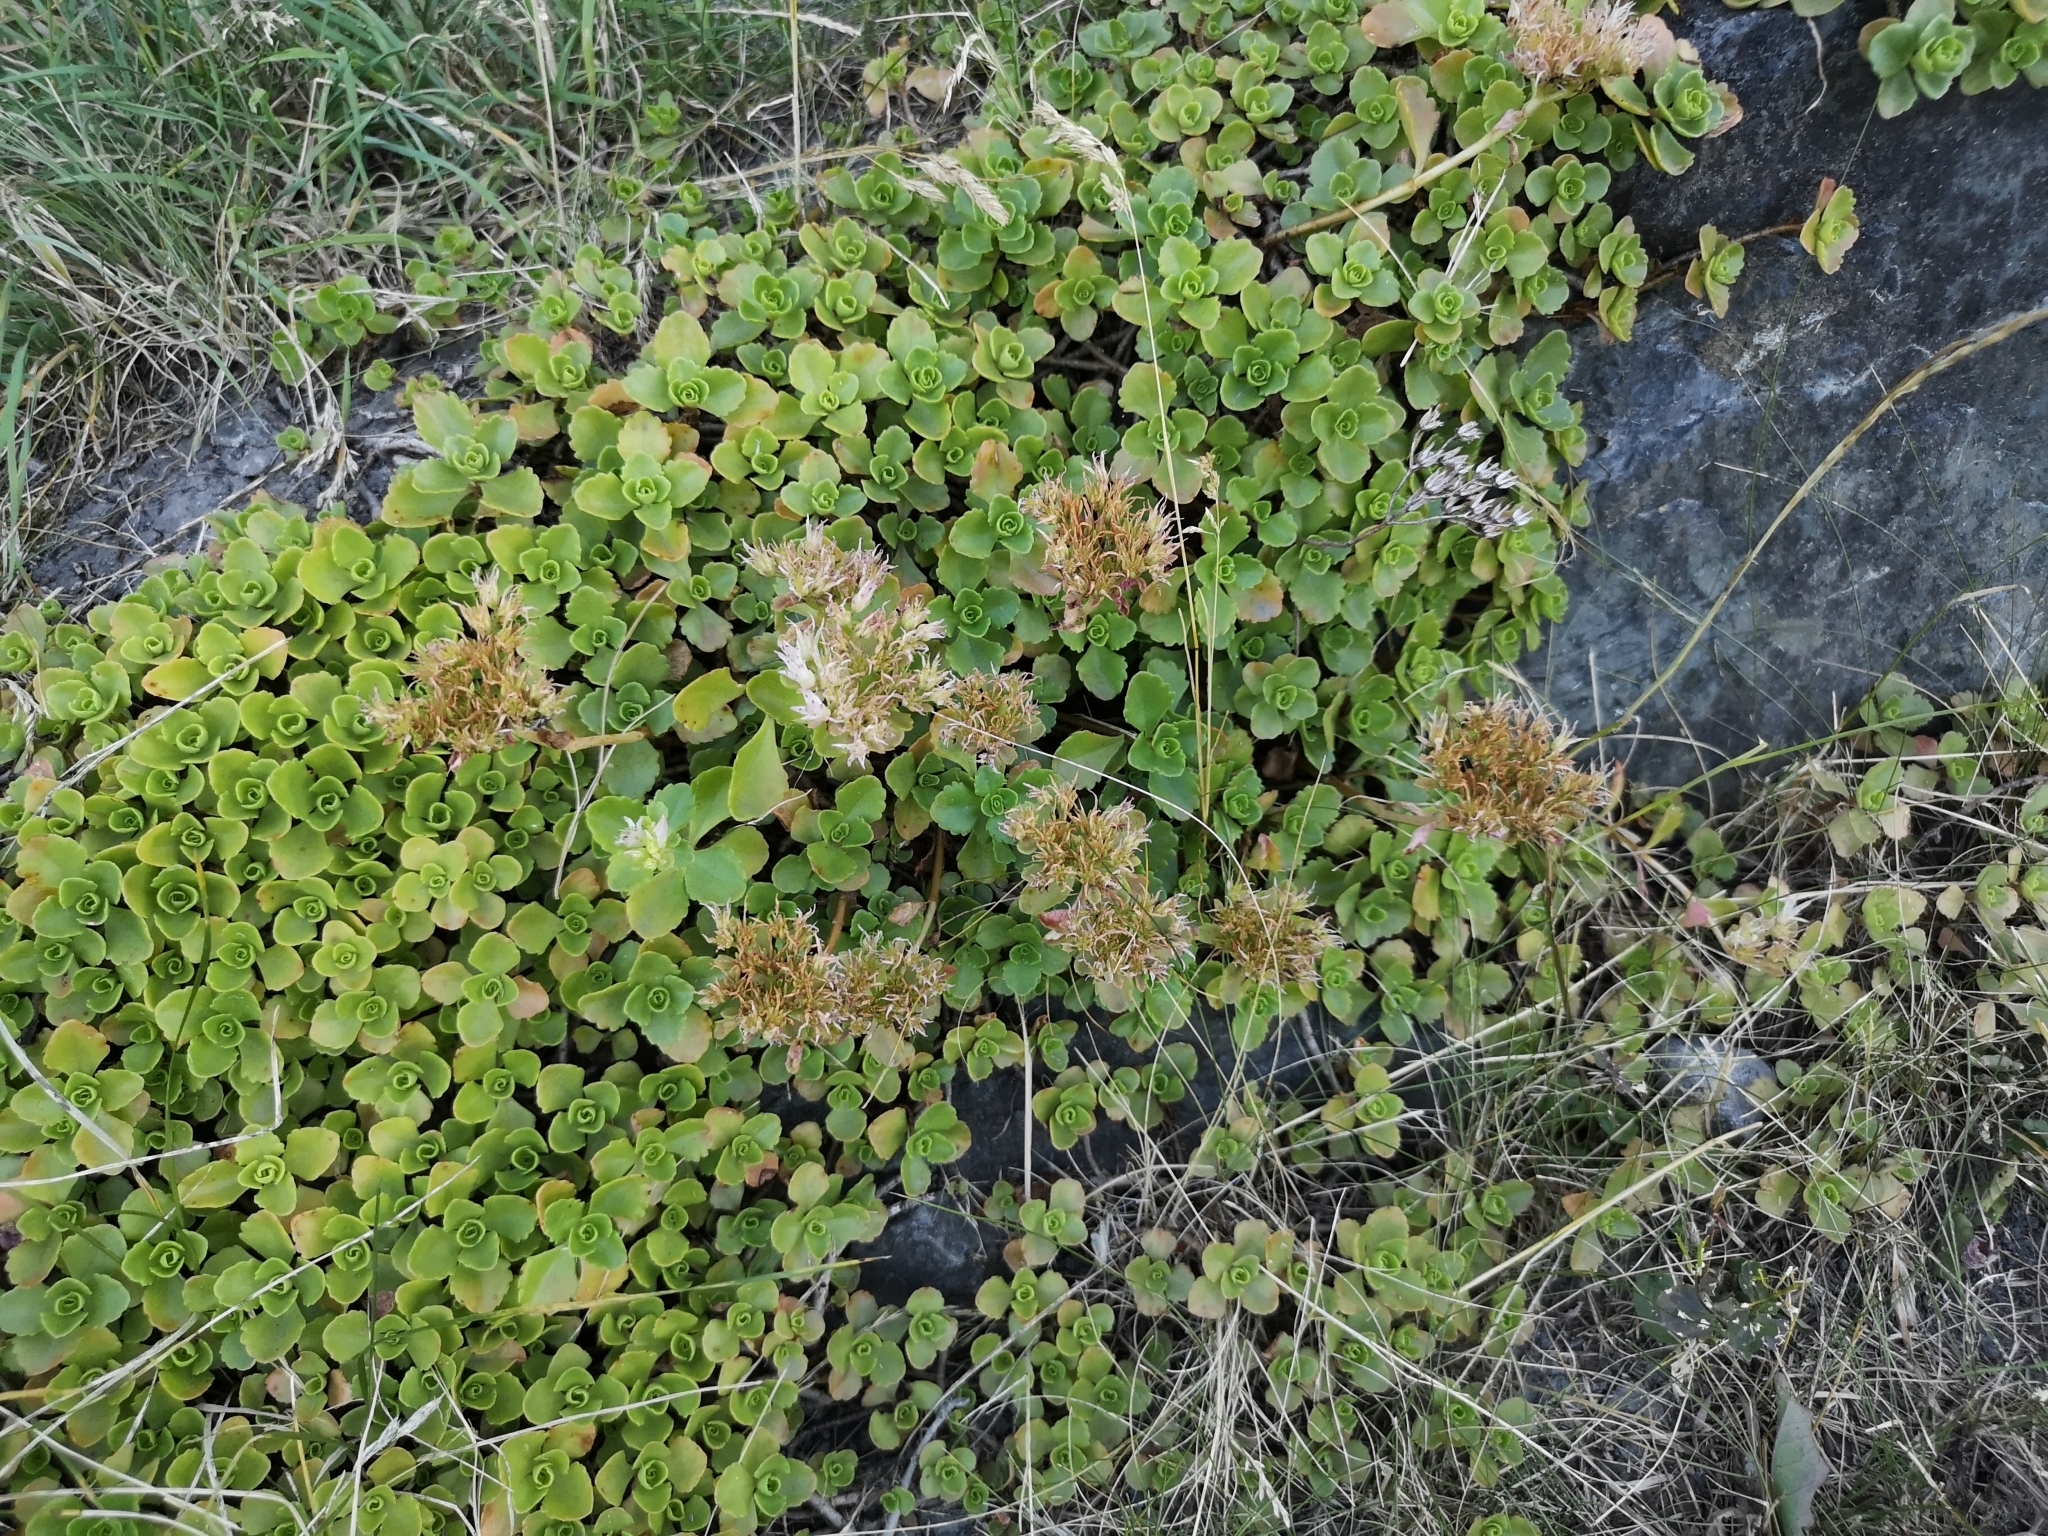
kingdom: Plantae
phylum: Tracheophyta
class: Magnoliopsida
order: Saxifragales
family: Crassulaceae
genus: Phedimus
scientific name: Phedimus spurius
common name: Caucasian stonecrop
